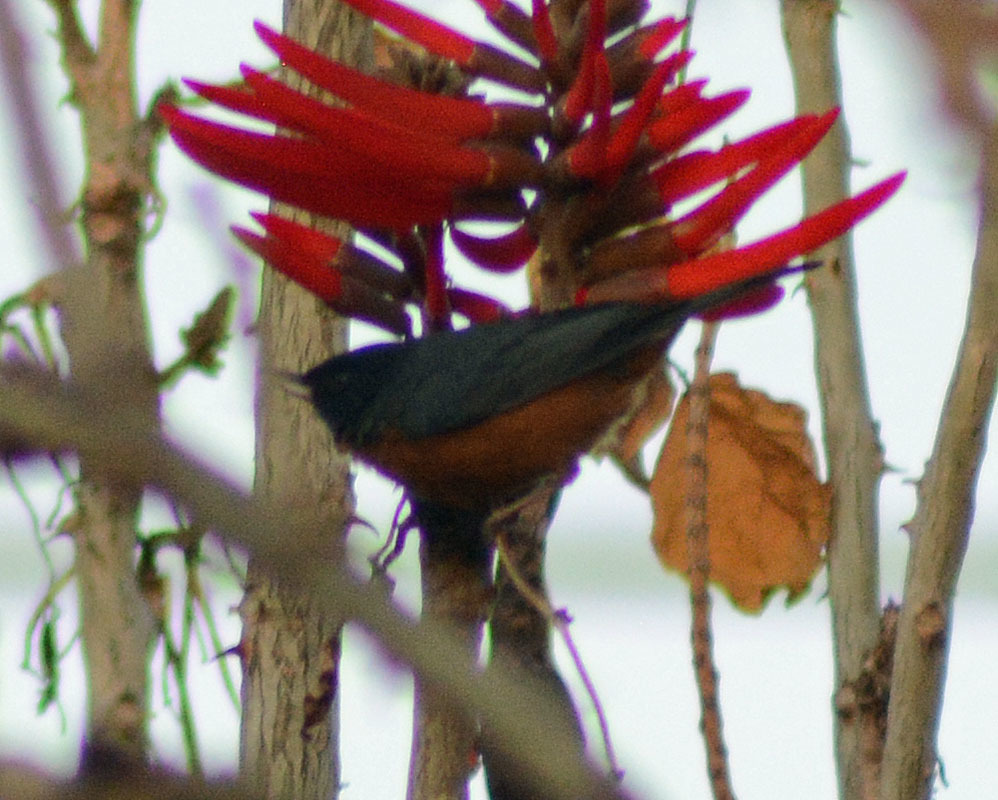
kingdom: Animalia
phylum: Chordata
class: Aves
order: Passeriformes
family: Thraupidae
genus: Diglossa
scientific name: Diglossa baritula
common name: Cinnamon-bellied flowerpiercer
